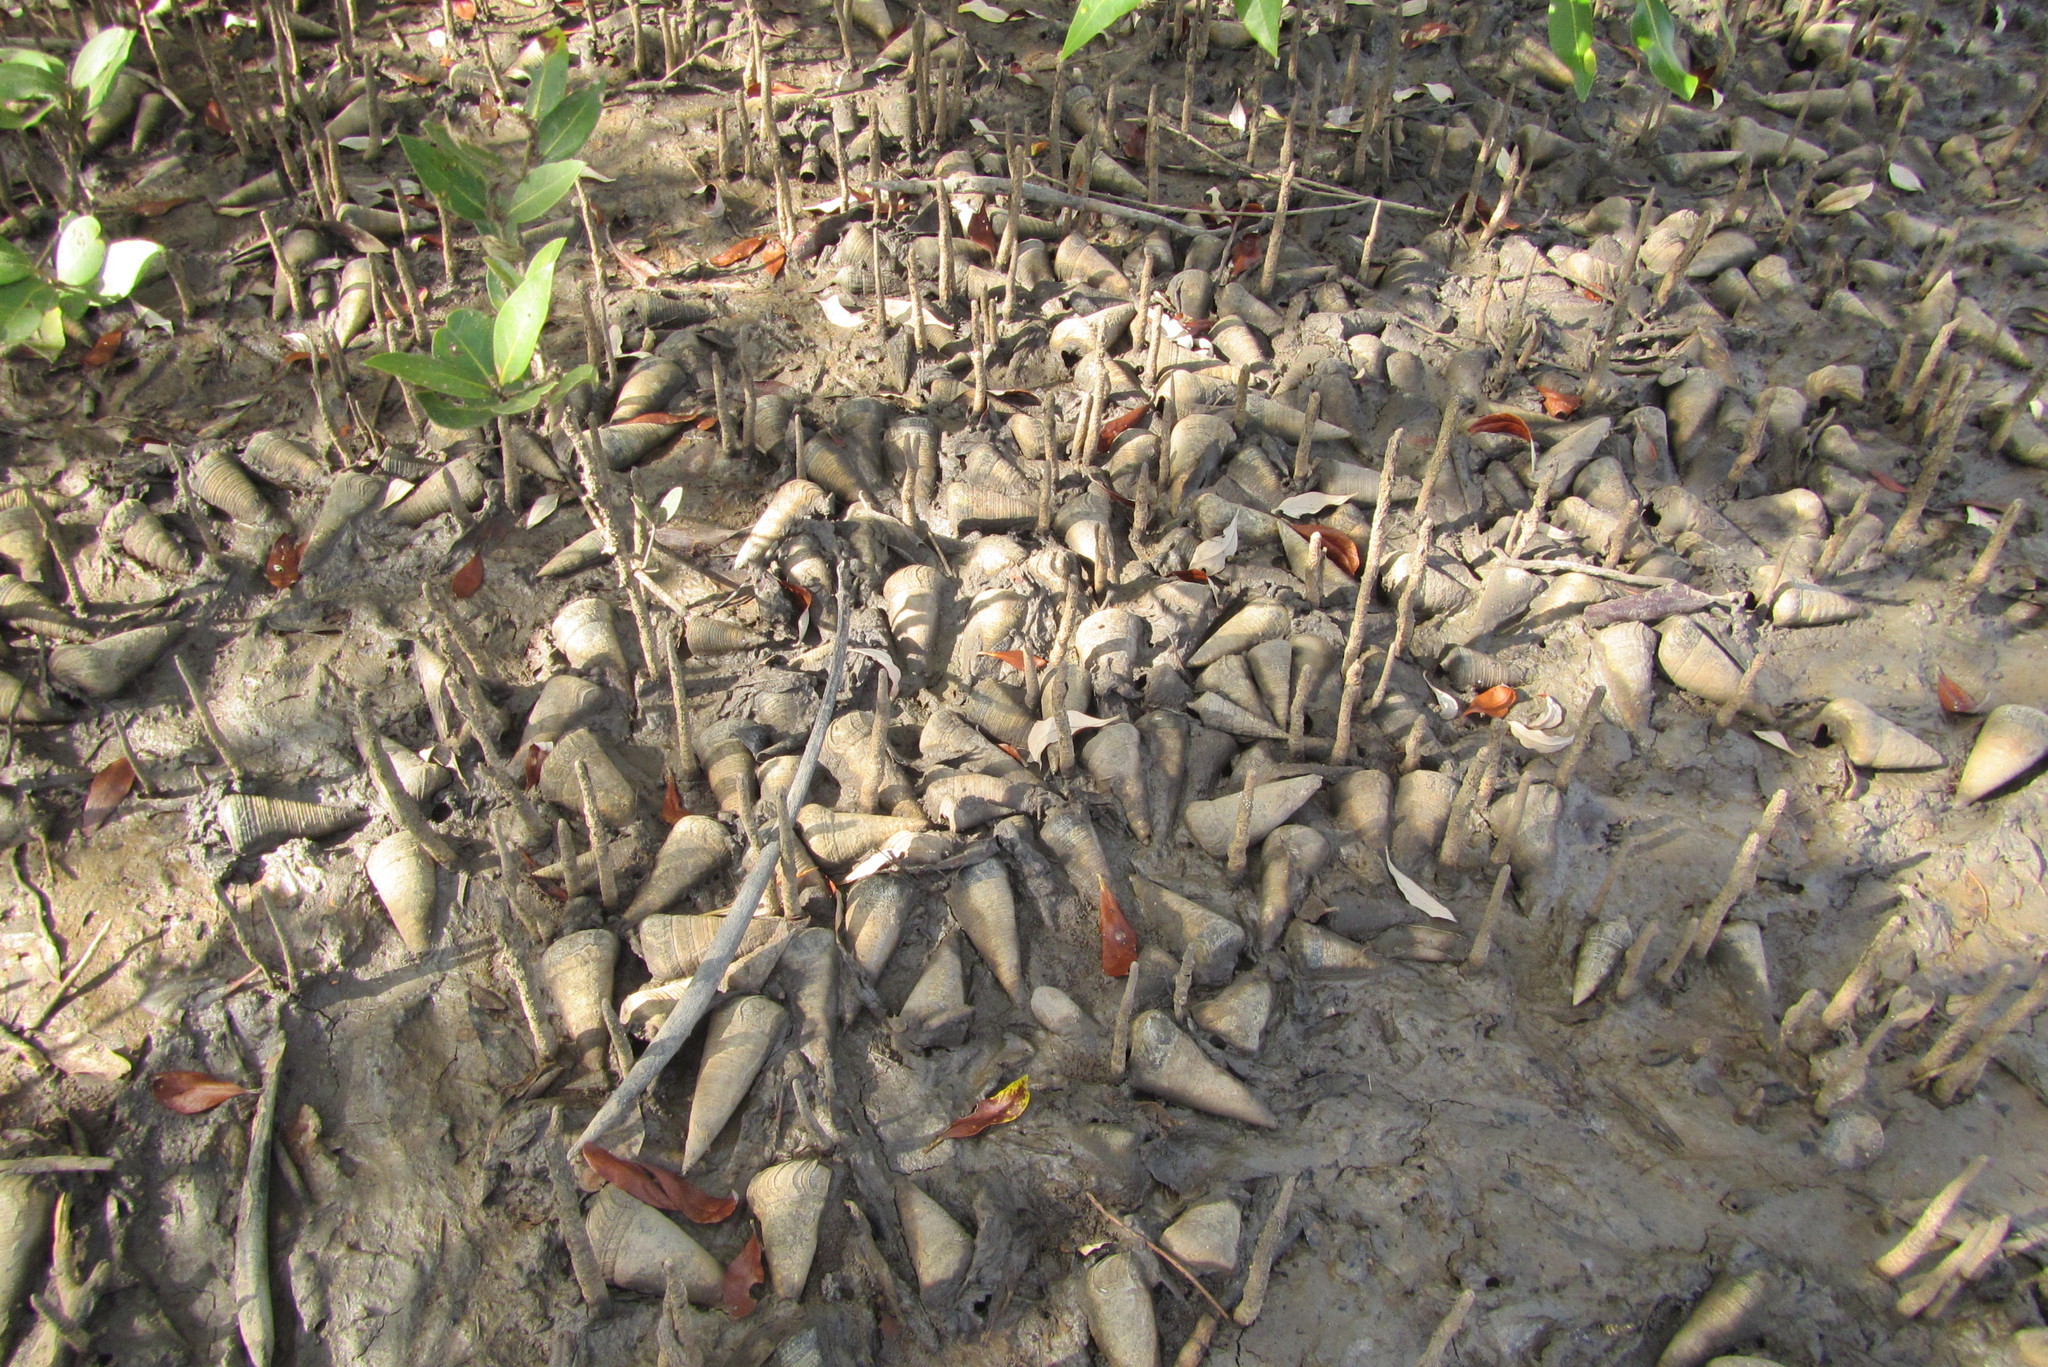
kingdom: Animalia
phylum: Mollusca
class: Gastropoda
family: Potamididae
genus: Telescopium
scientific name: Telescopium telescopium
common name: Telescope creeper
